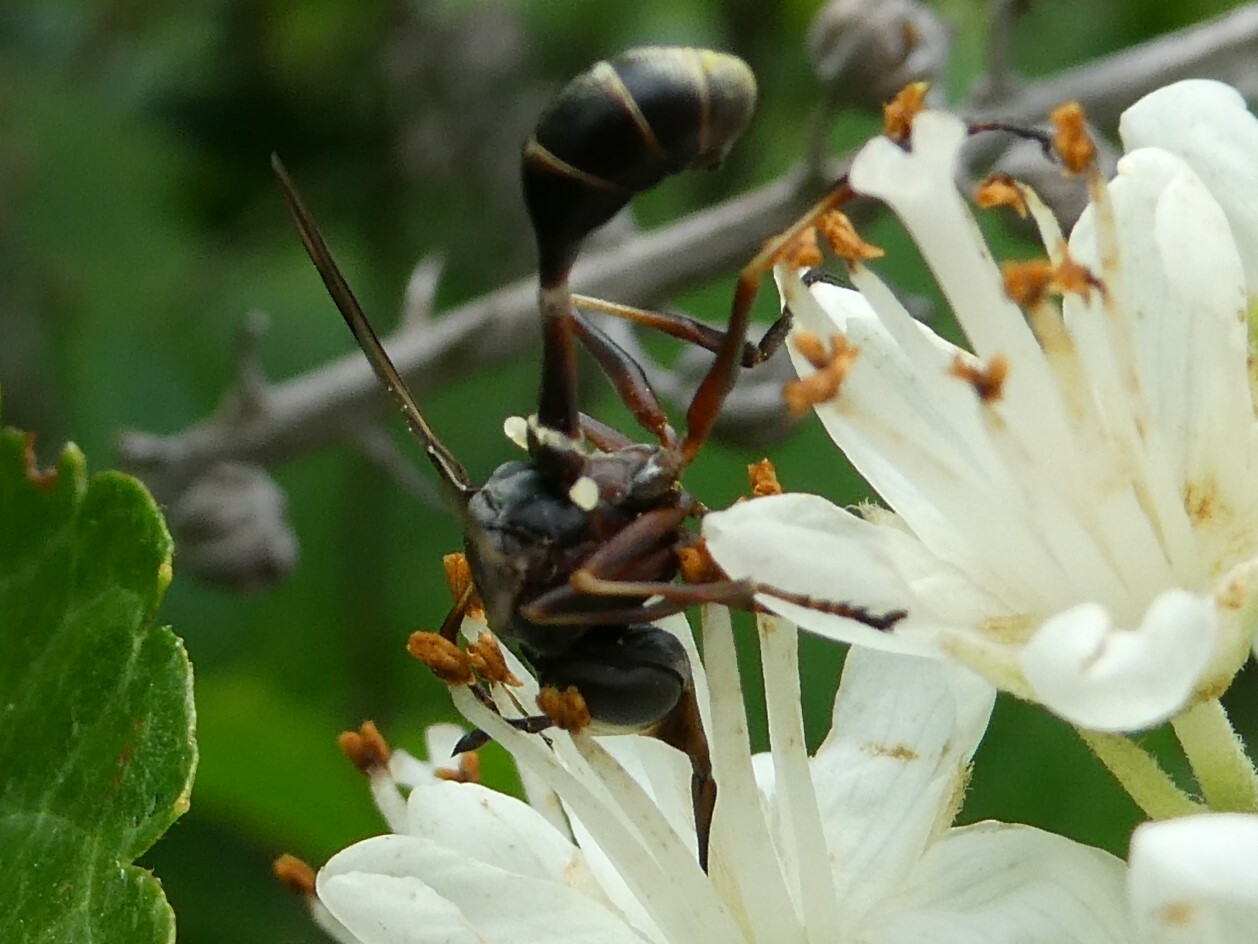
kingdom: Animalia
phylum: Arthropoda
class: Insecta
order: Diptera
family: Conopidae
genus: Physocephala
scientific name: Physocephala furcillata
